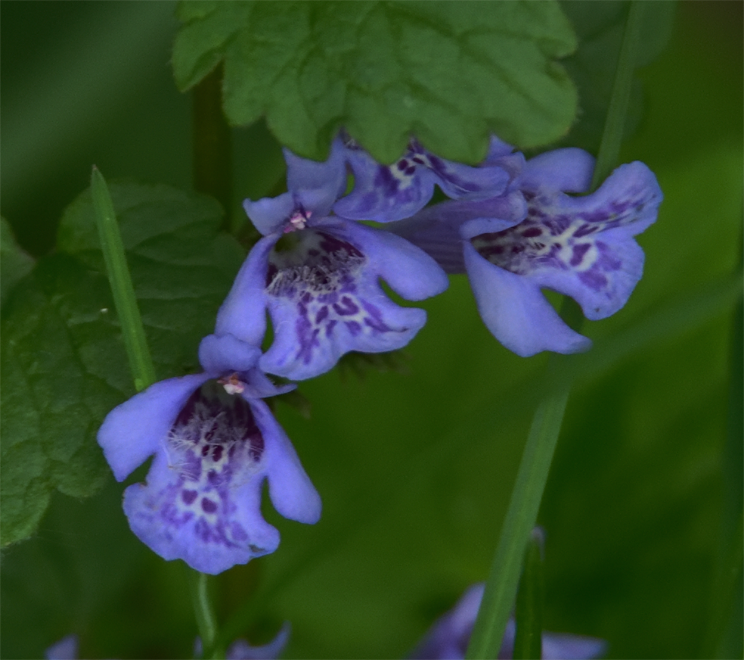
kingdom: Plantae
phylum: Tracheophyta
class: Magnoliopsida
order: Lamiales
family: Lamiaceae
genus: Glechoma
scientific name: Glechoma hederacea
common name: Ground ivy
